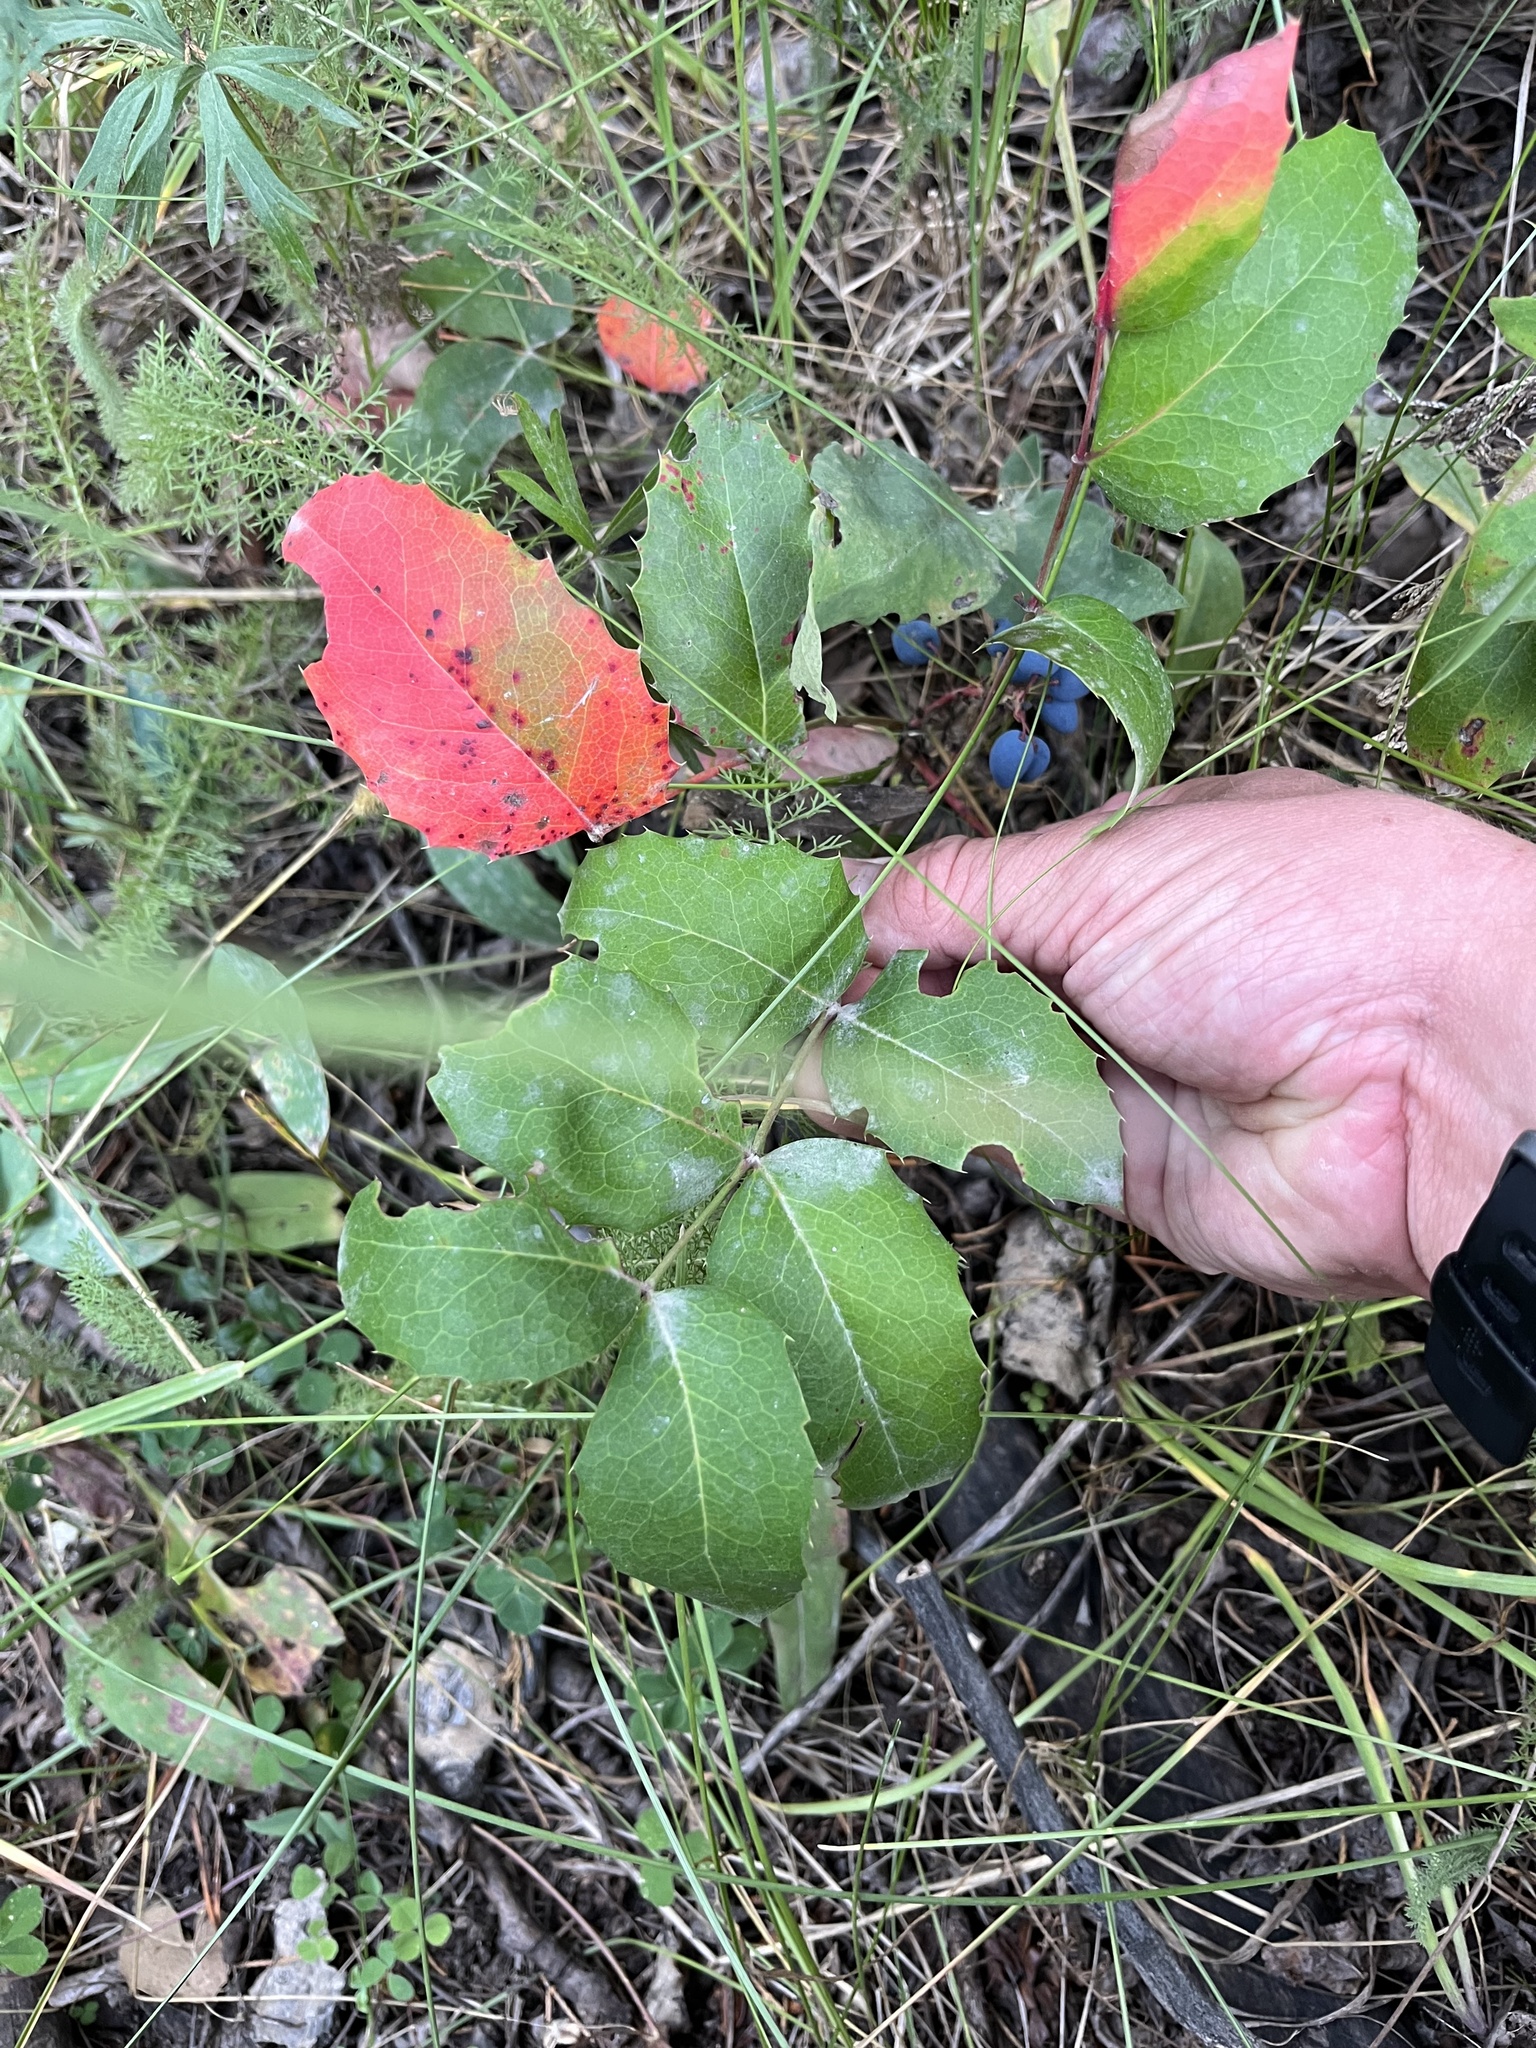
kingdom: Plantae
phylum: Tracheophyta
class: Magnoliopsida
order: Ranunculales
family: Berberidaceae
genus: Mahonia
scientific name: Mahonia repens
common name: Creeping oregon-grape
